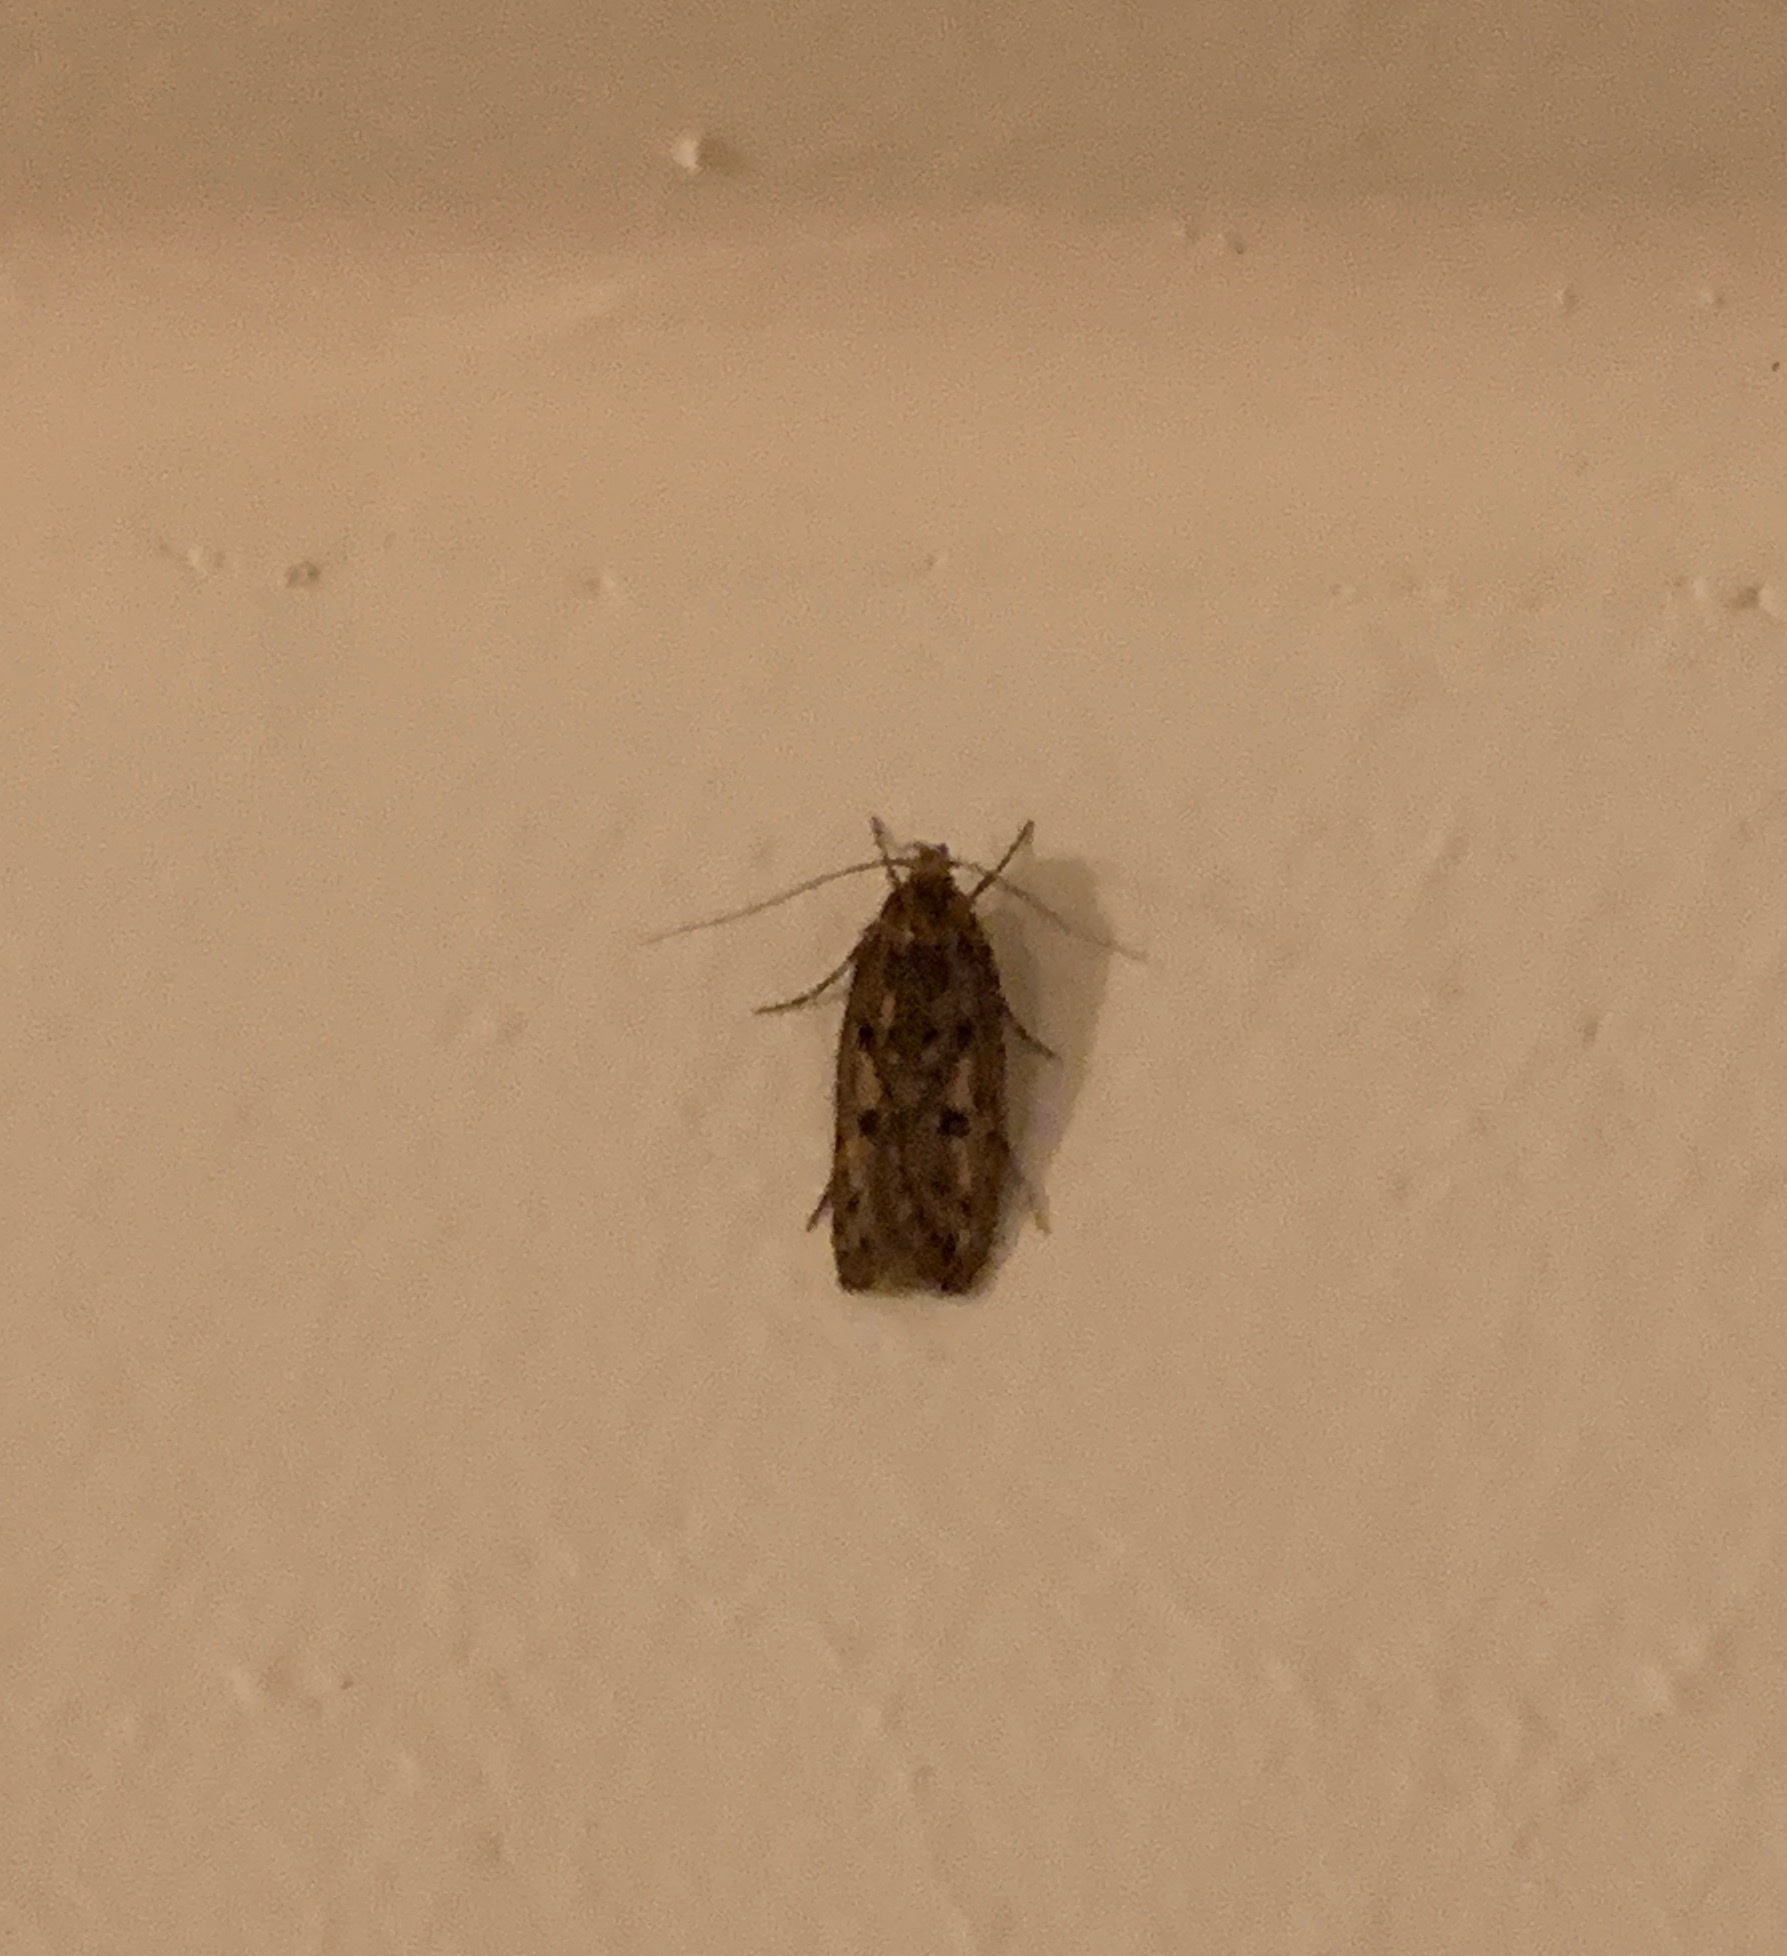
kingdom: Animalia
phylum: Arthropoda
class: Insecta
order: Lepidoptera
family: Oecophoridae
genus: Hofmannophila
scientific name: Hofmannophila pseudospretella
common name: Brown house moth
